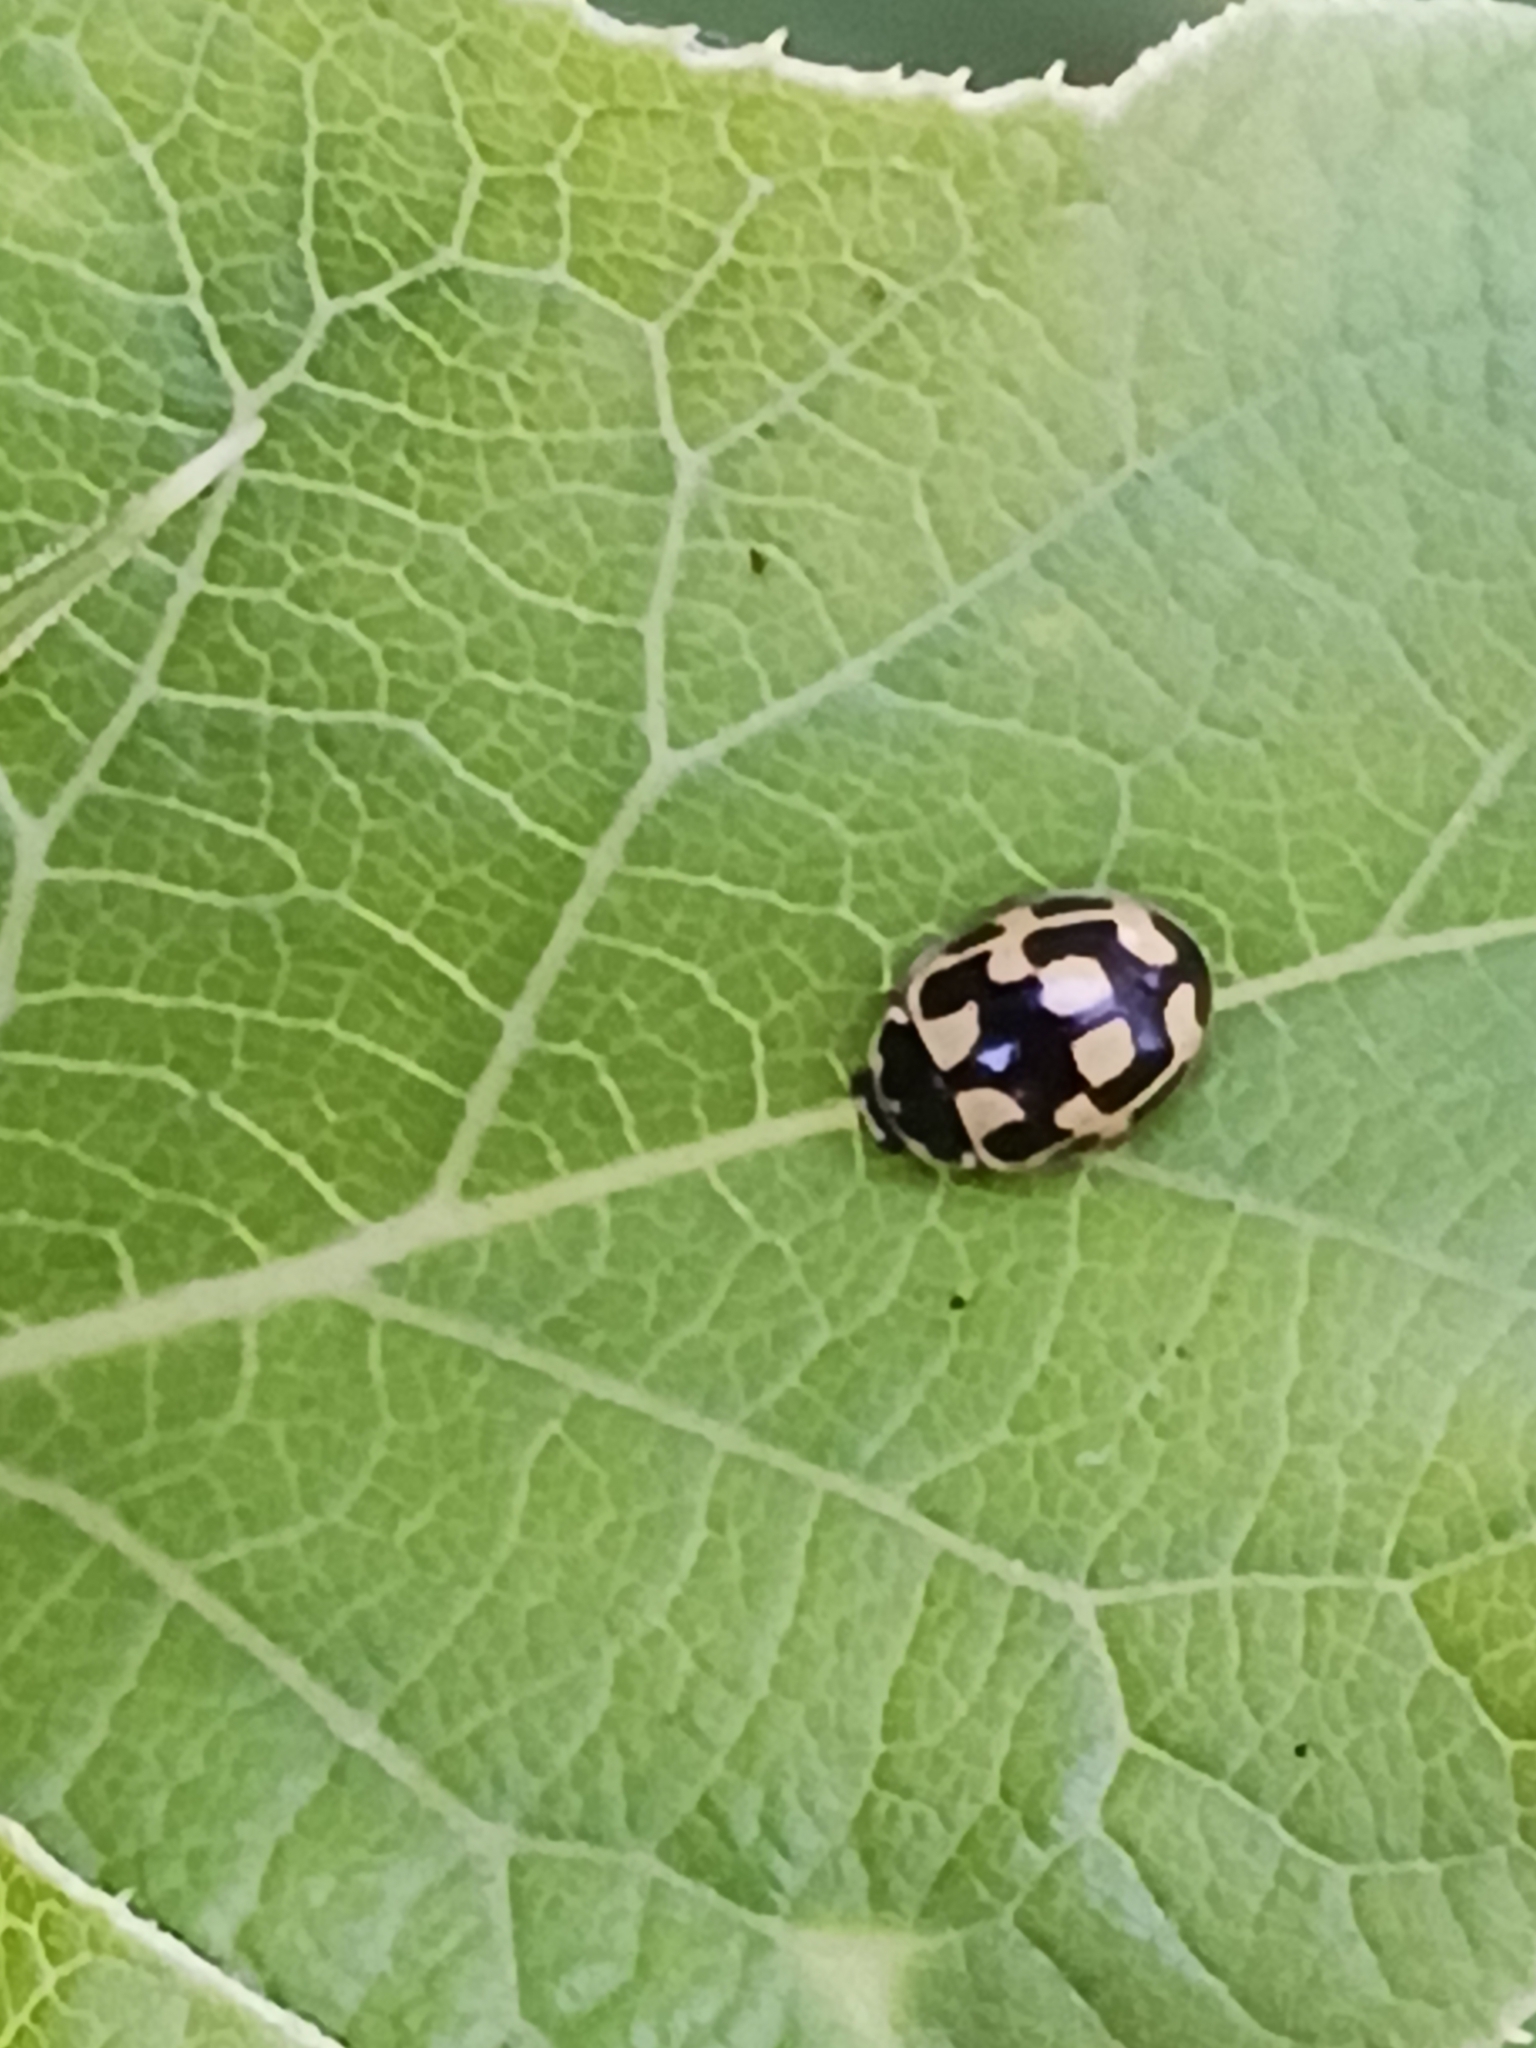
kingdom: Animalia
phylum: Arthropoda
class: Insecta
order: Coleoptera
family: Coccinellidae
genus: Propylaea
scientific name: Propylaea quatuordecimpunctata
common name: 14-spotted ladybird beetle
